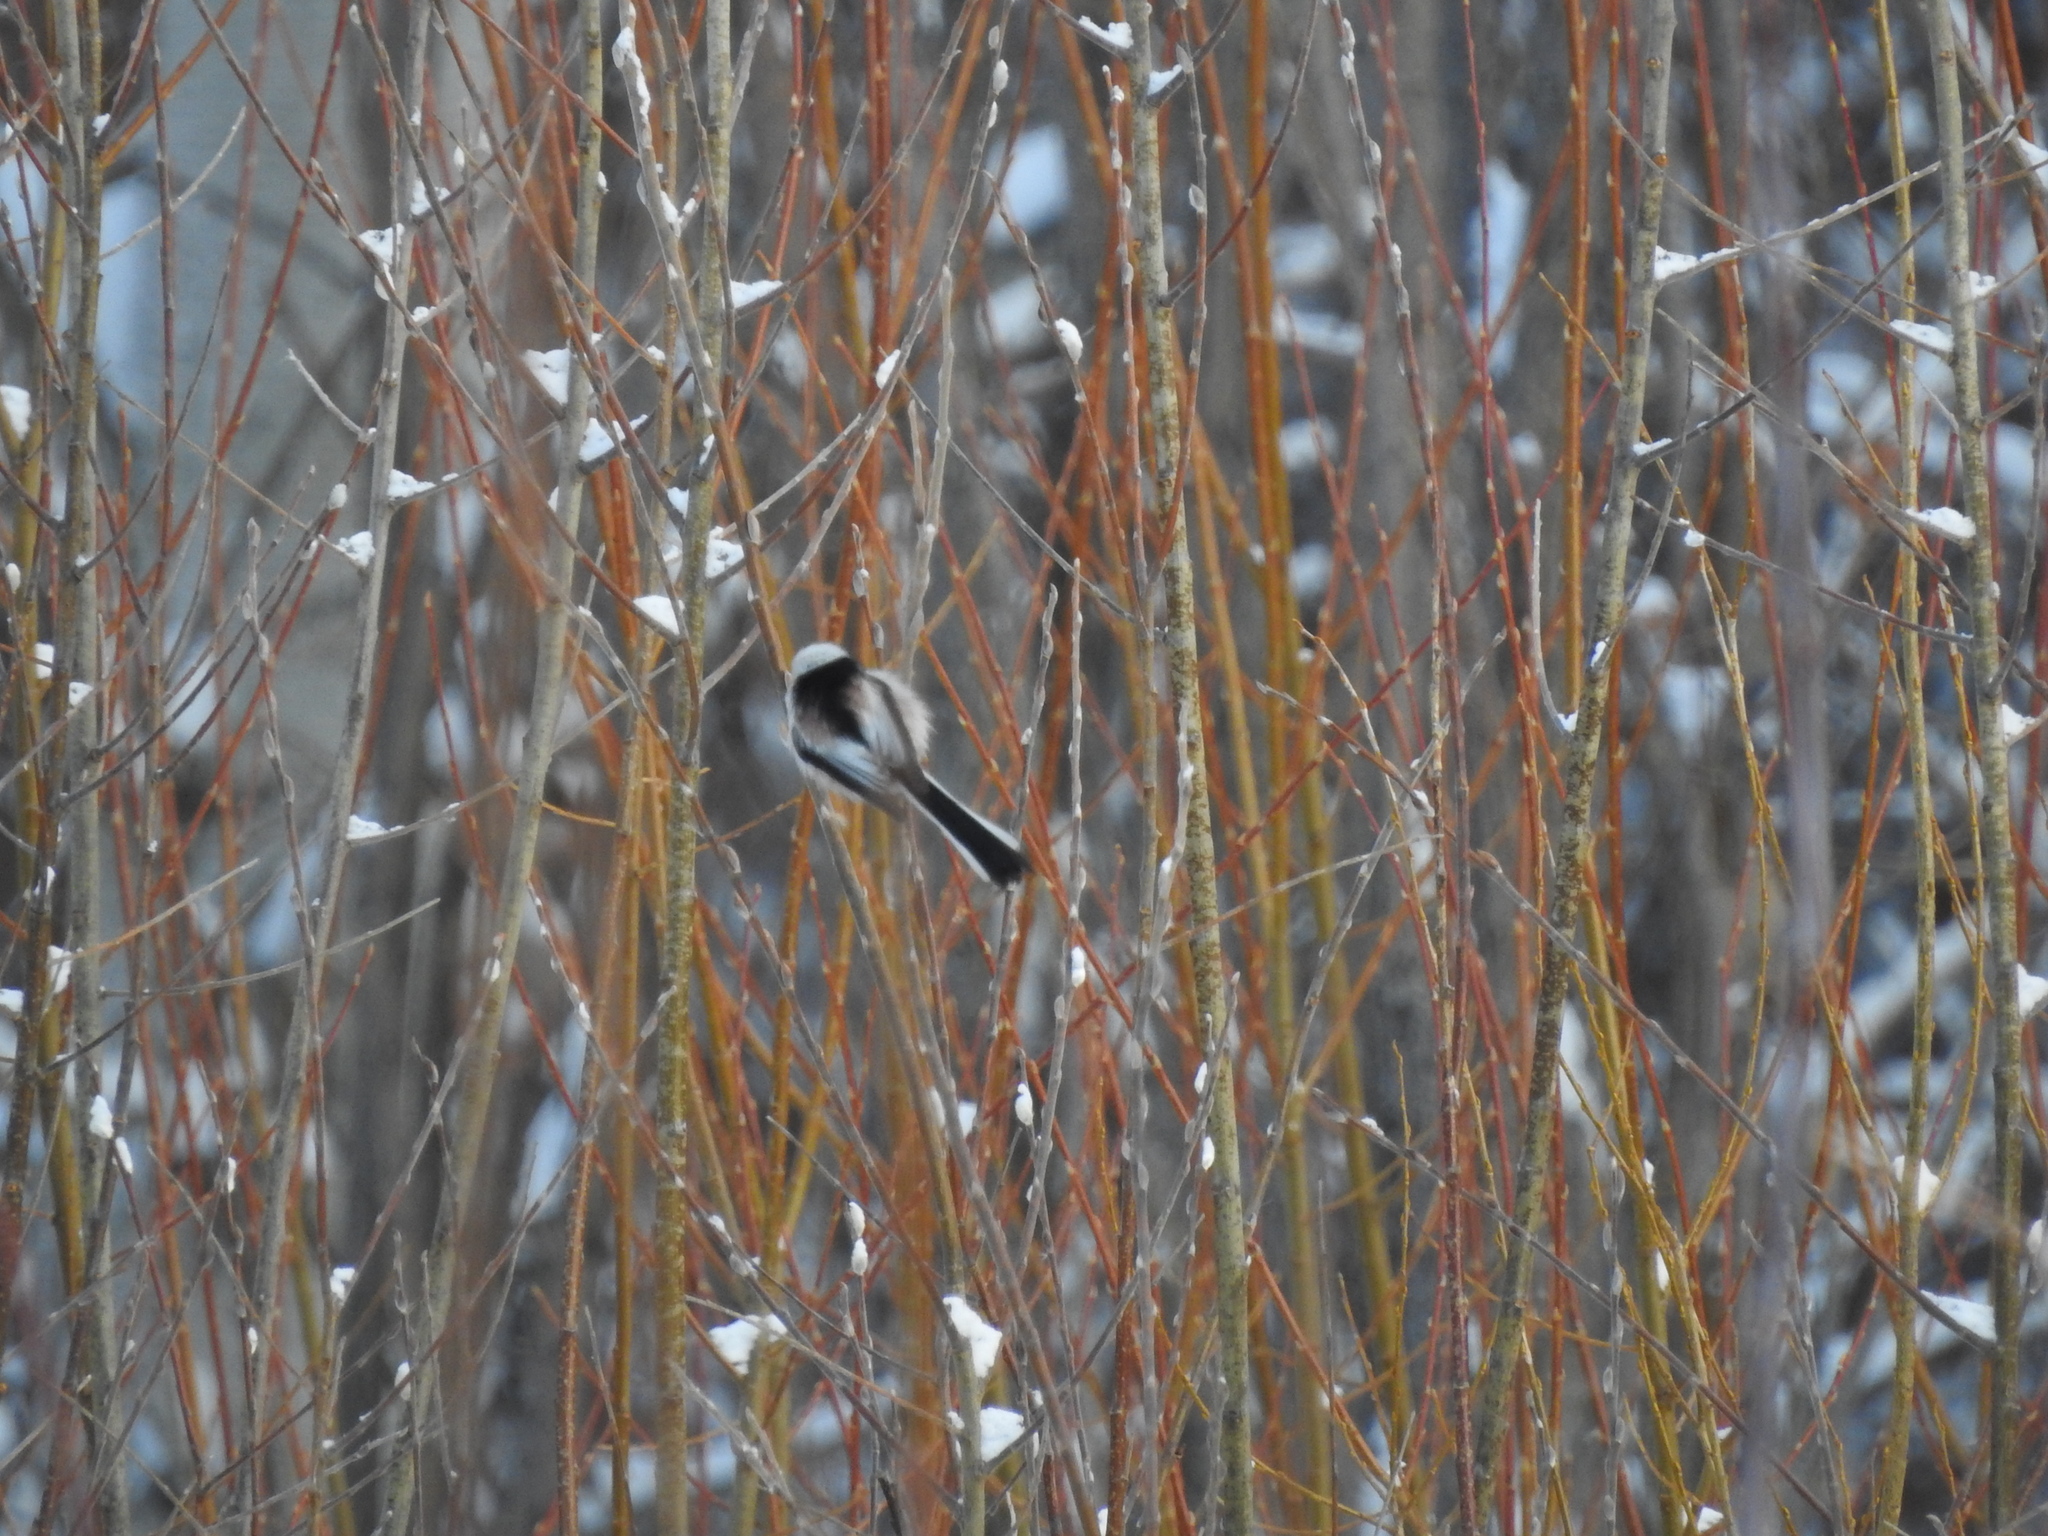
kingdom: Animalia
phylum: Chordata
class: Aves
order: Passeriformes
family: Aegithalidae
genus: Aegithalos
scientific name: Aegithalos caudatus
